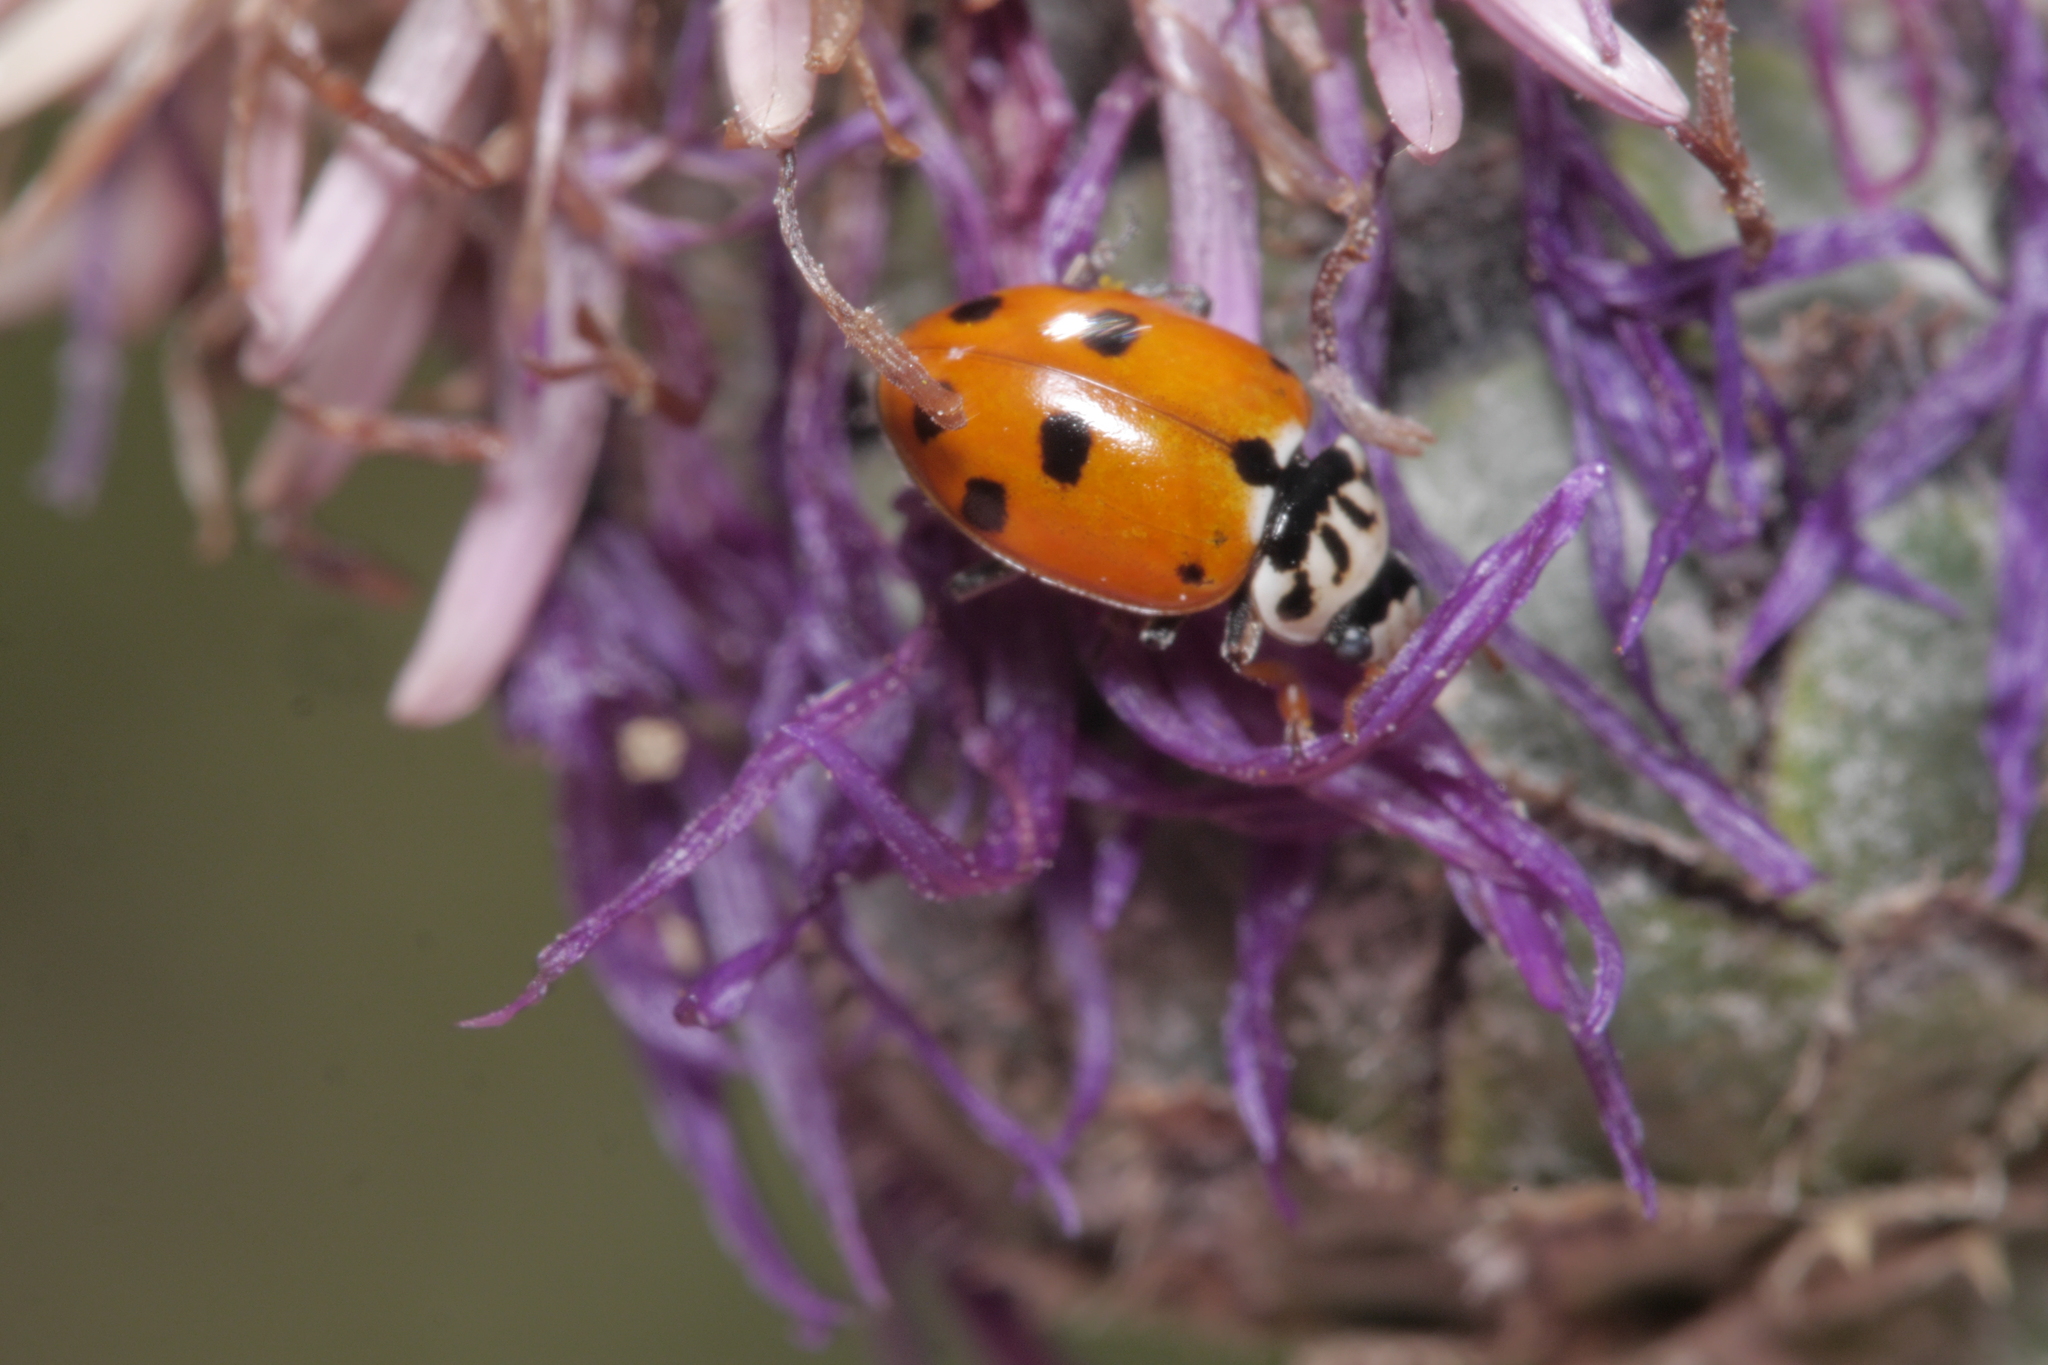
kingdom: Animalia
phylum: Arthropoda
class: Insecta
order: Coleoptera
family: Coccinellidae
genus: Hippodamia
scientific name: Hippodamia variegata
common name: Ladybird beetle
